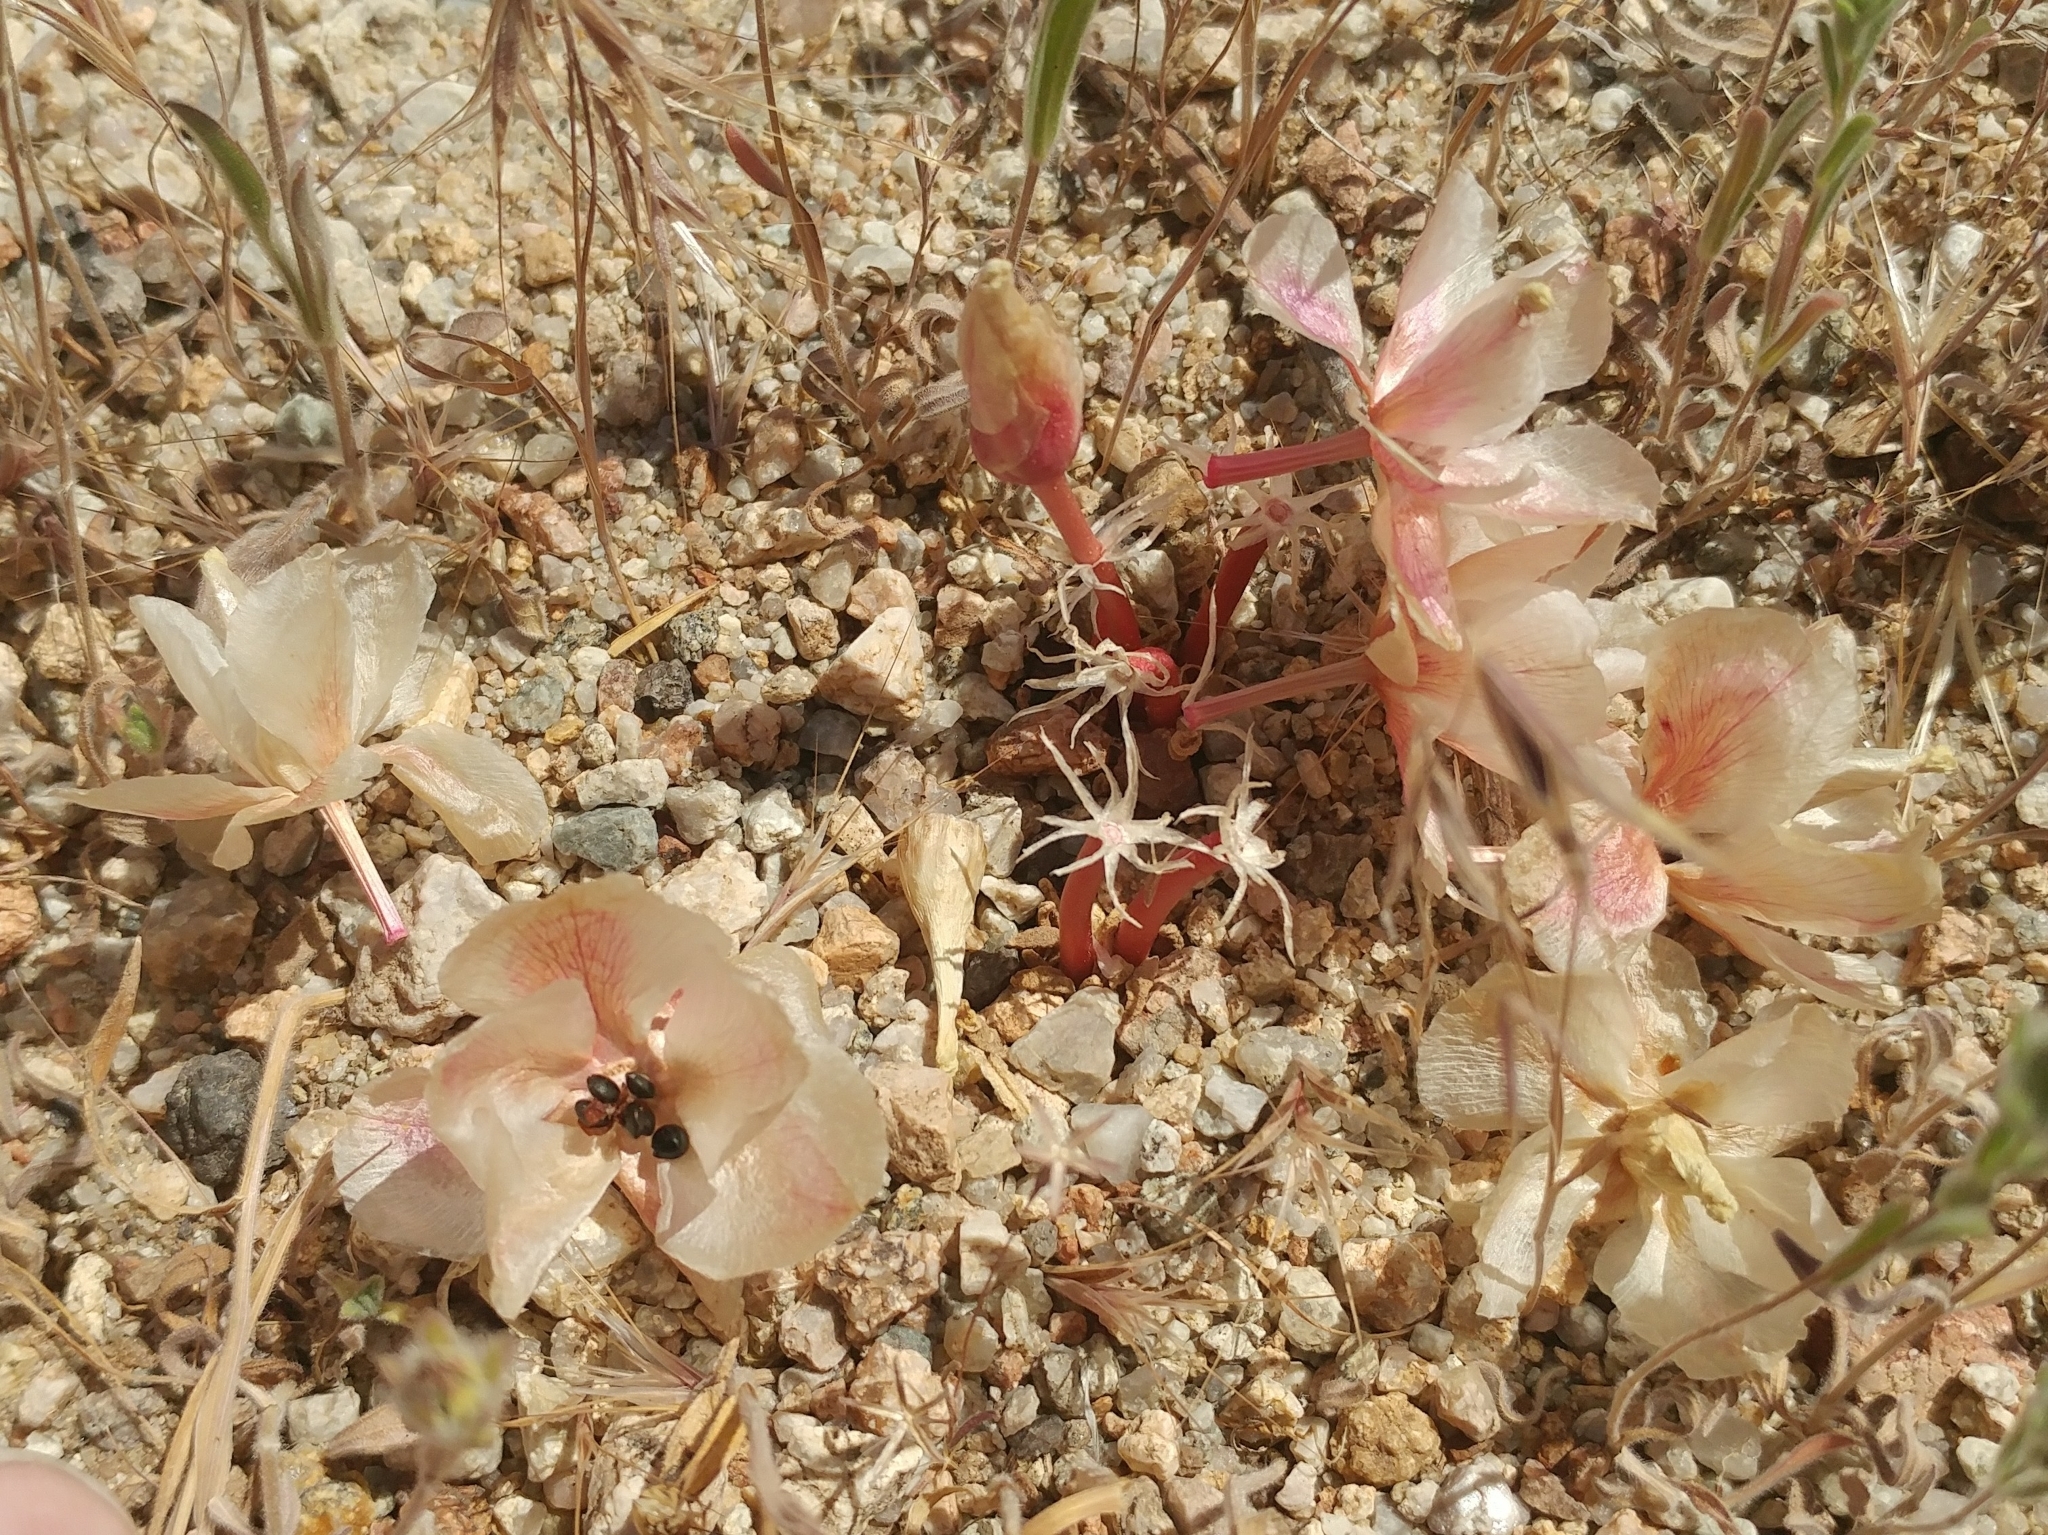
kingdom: Plantae
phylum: Tracheophyta
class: Magnoliopsida
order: Caryophyllales
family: Montiaceae
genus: Lewisia
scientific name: Lewisia rediviva
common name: Bitter-root
